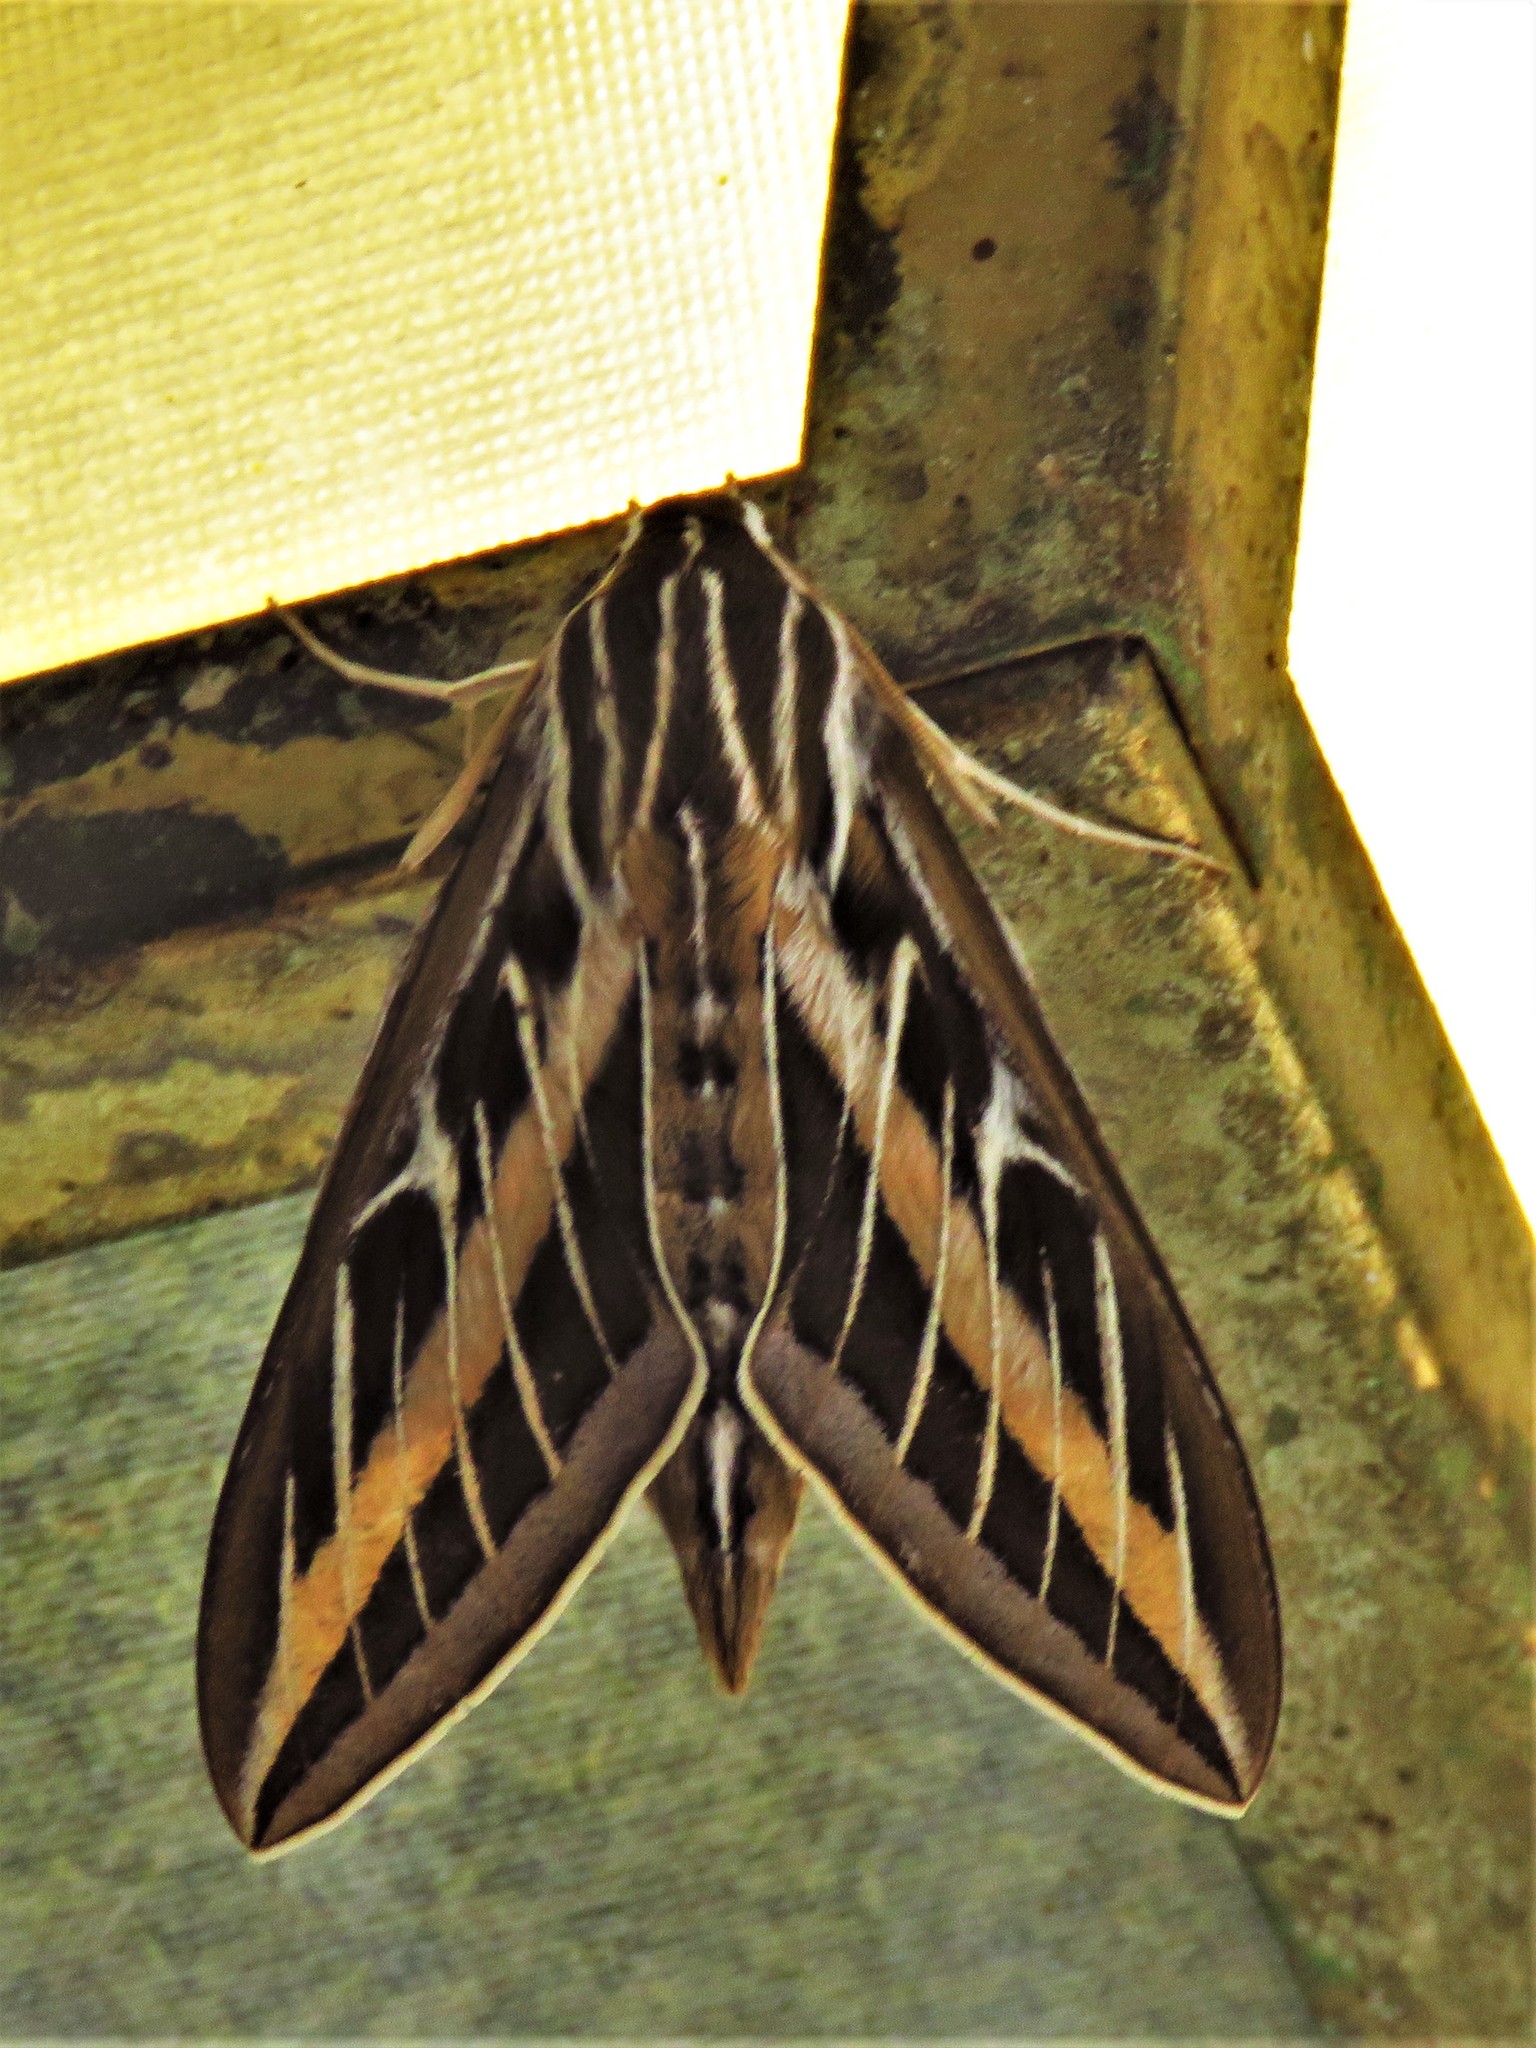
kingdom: Animalia
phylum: Arthropoda
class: Insecta
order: Lepidoptera
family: Sphingidae
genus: Hyles
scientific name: Hyles lineata
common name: White-lined sphinx
